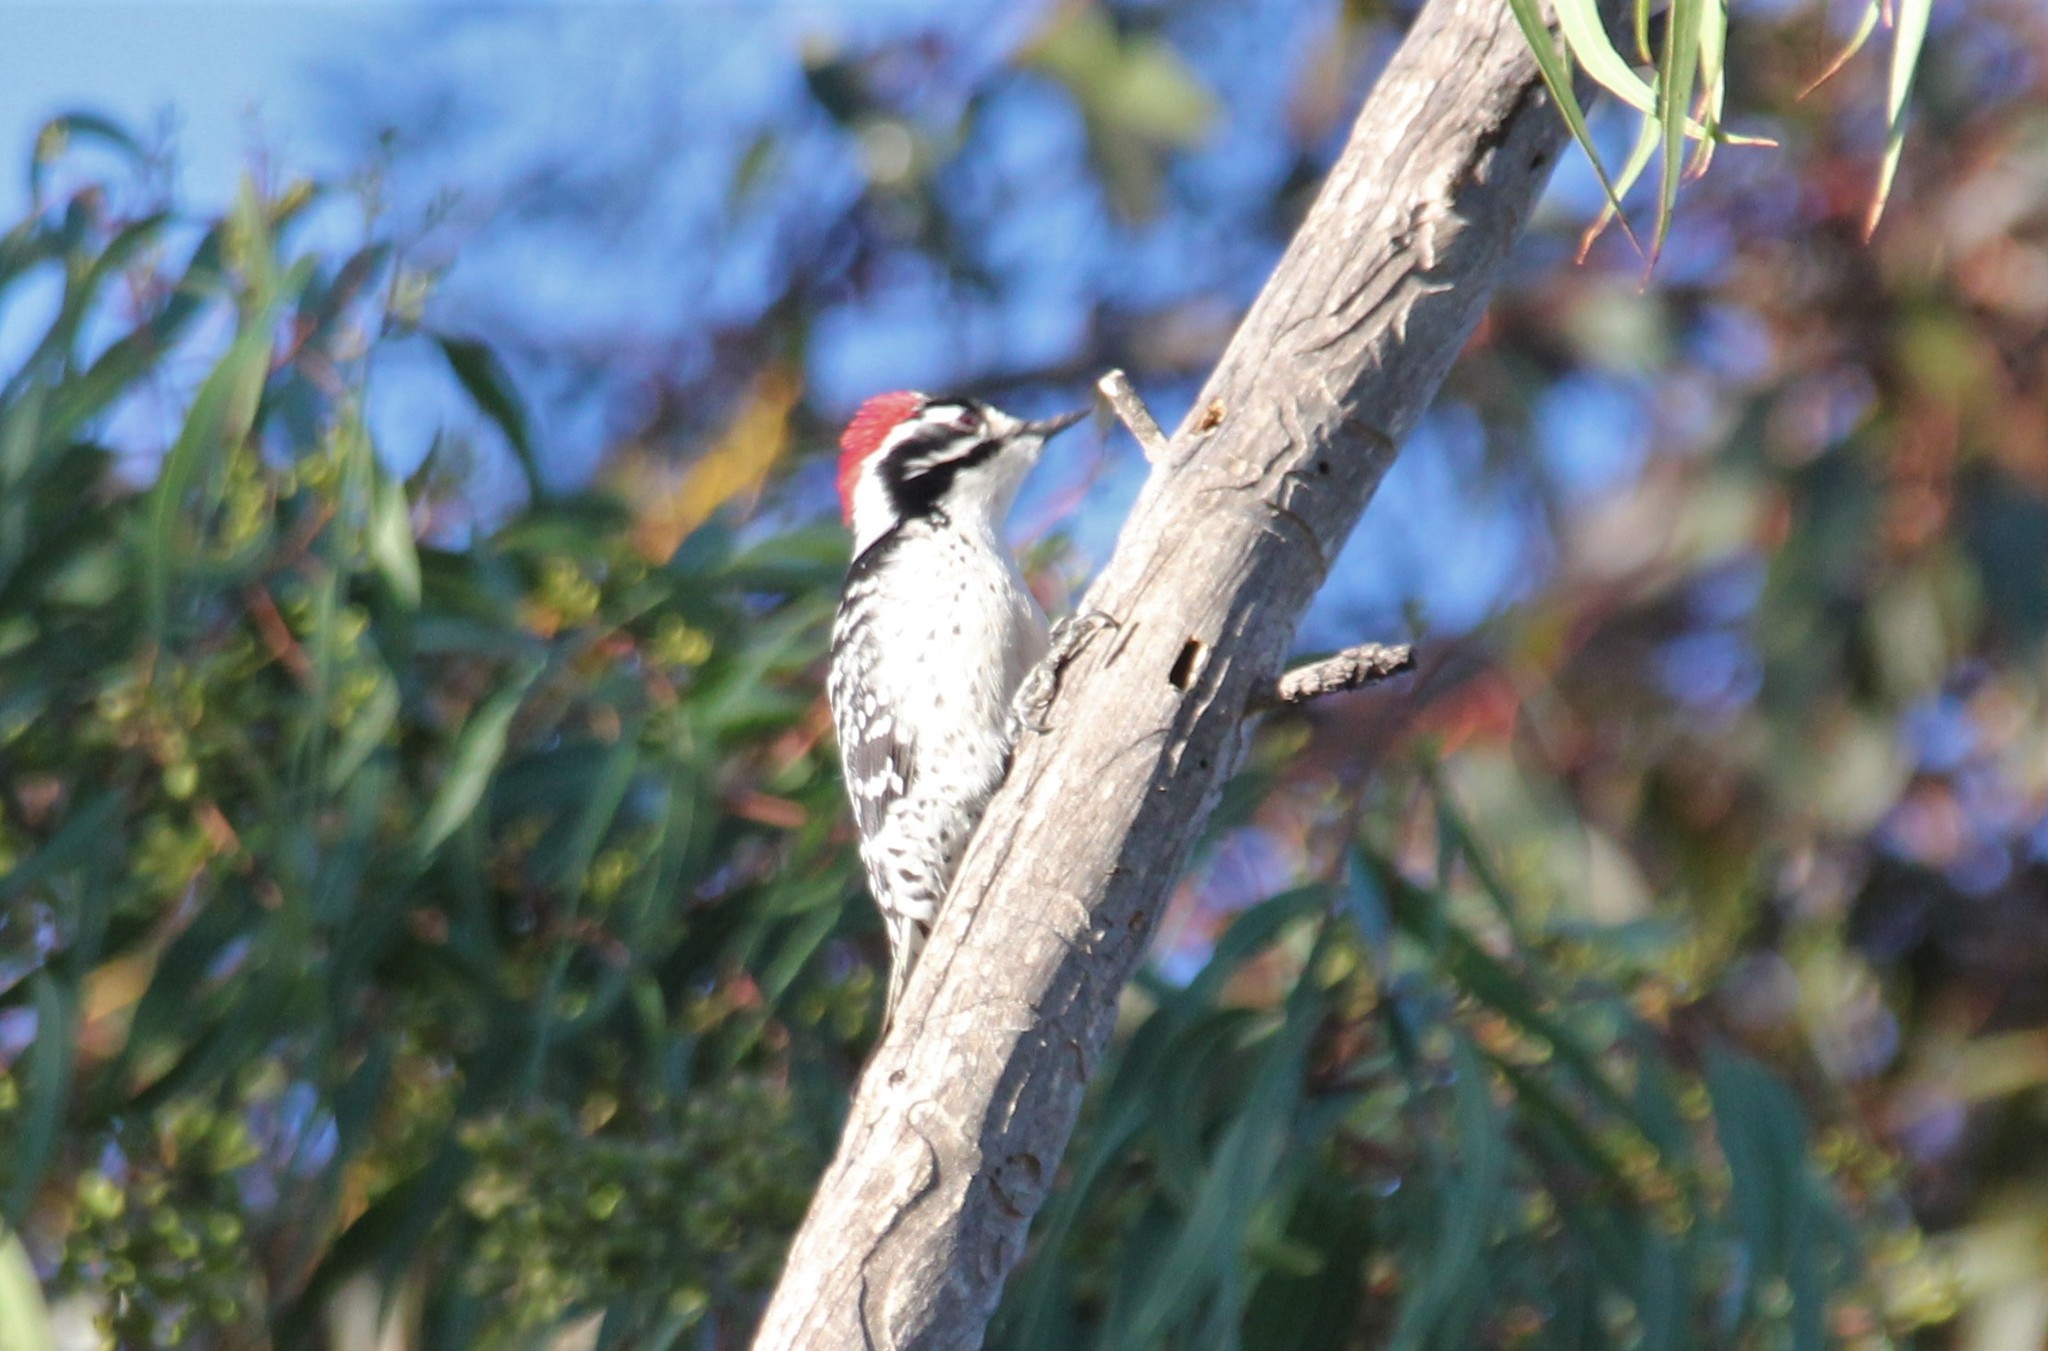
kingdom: Animalia
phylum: Chordata
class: Aves
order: Piciformes
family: Picidae
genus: Dryobates
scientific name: Dryobates nuttallii
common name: Nuttall's woodpecker
